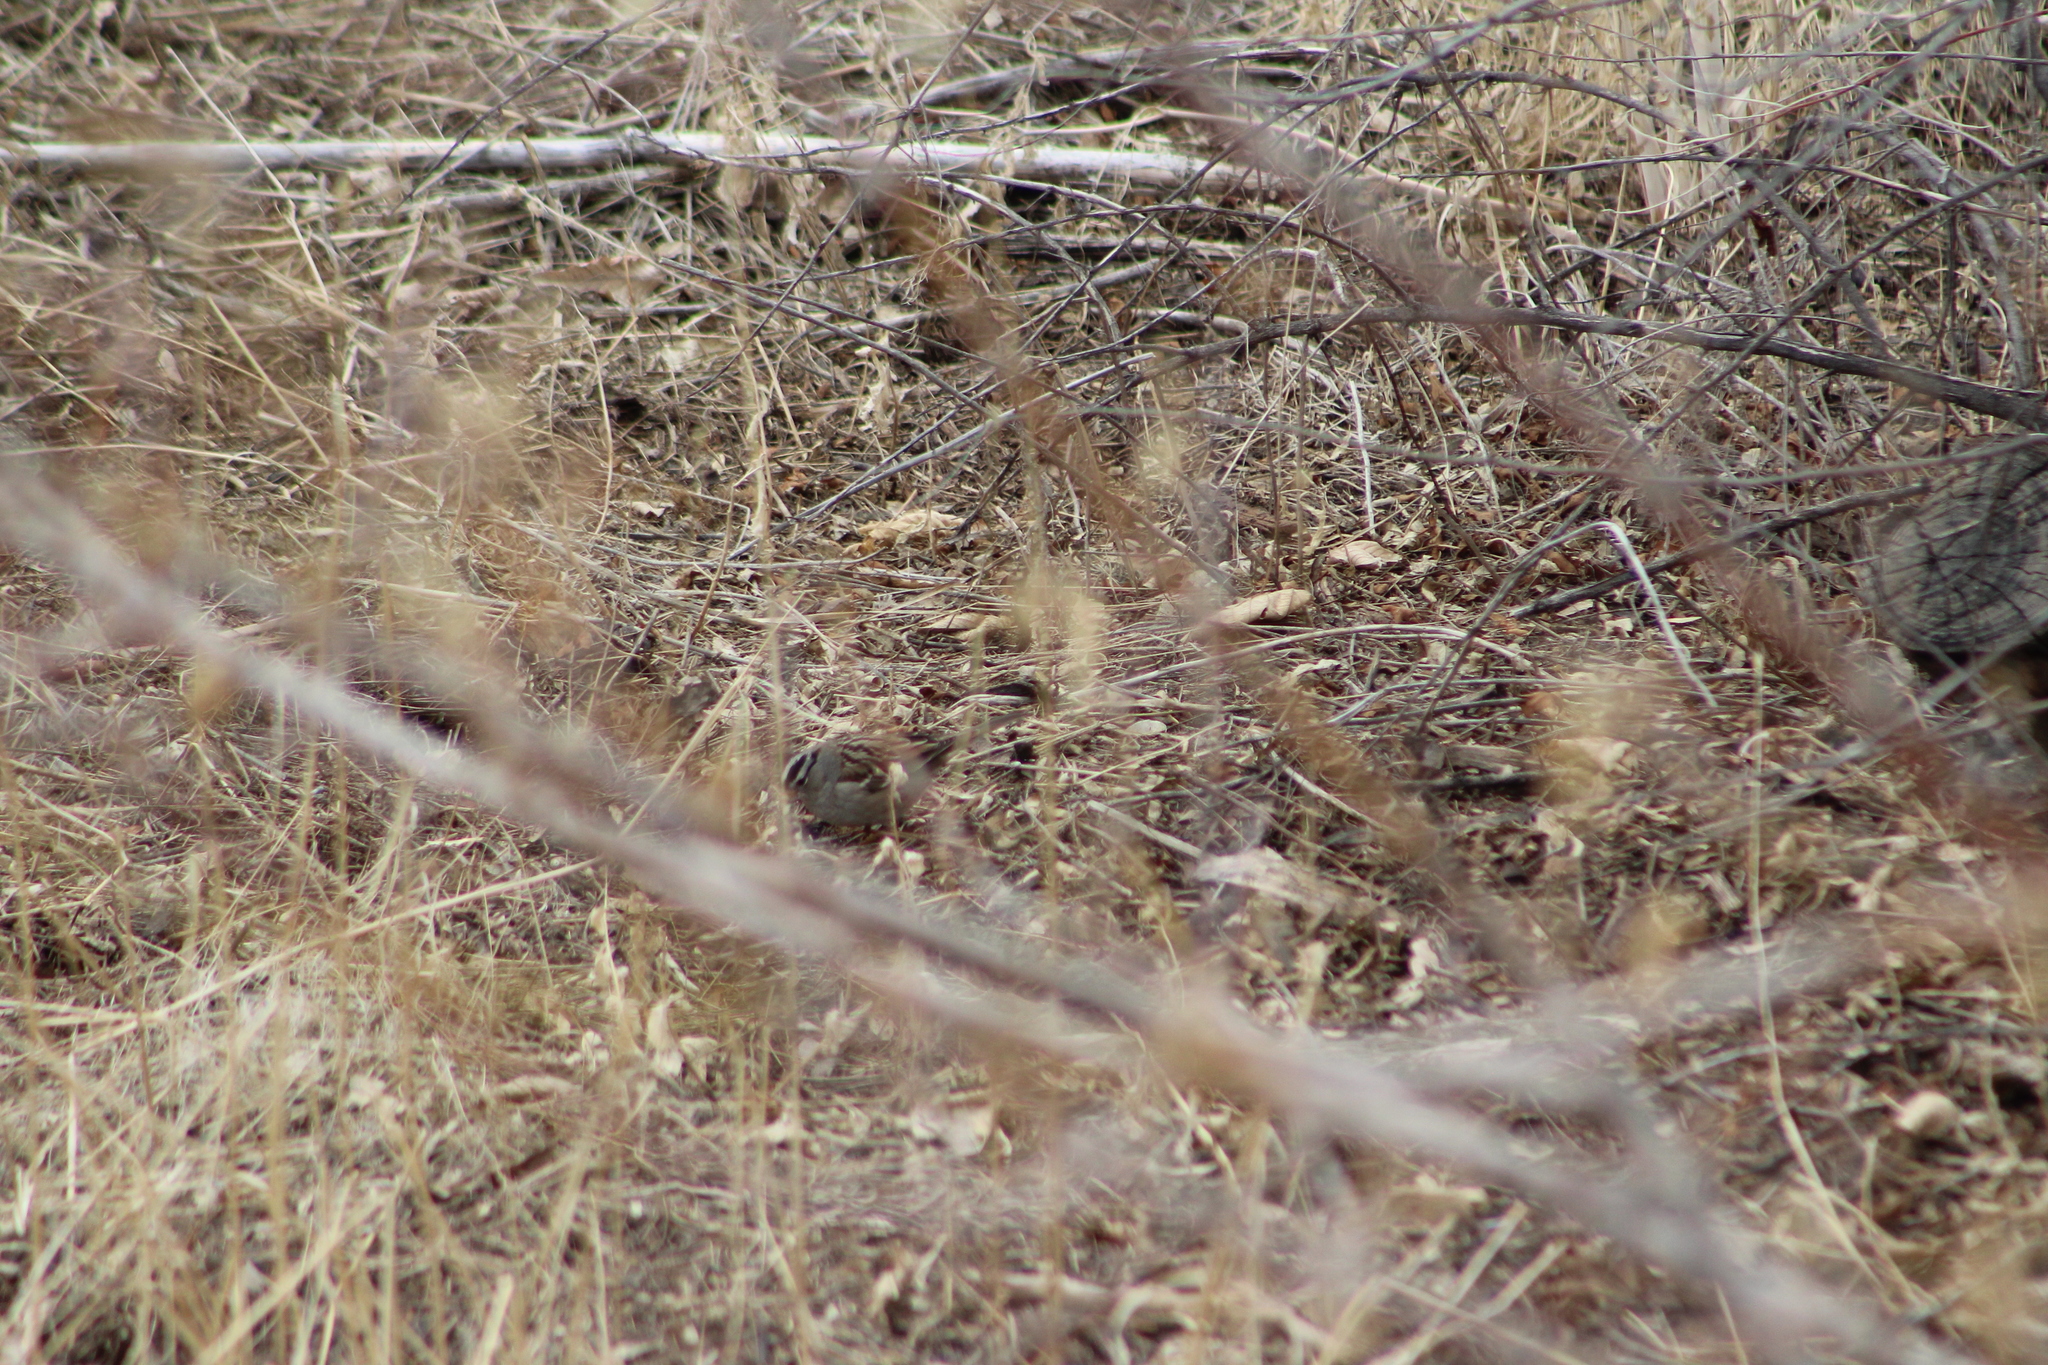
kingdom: Animalia
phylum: Chordata
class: Aves
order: Passeriformes
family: Passerellidae
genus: Zonotrichia
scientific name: Zonotrichia leucophrys
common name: White-crowned sparrow
